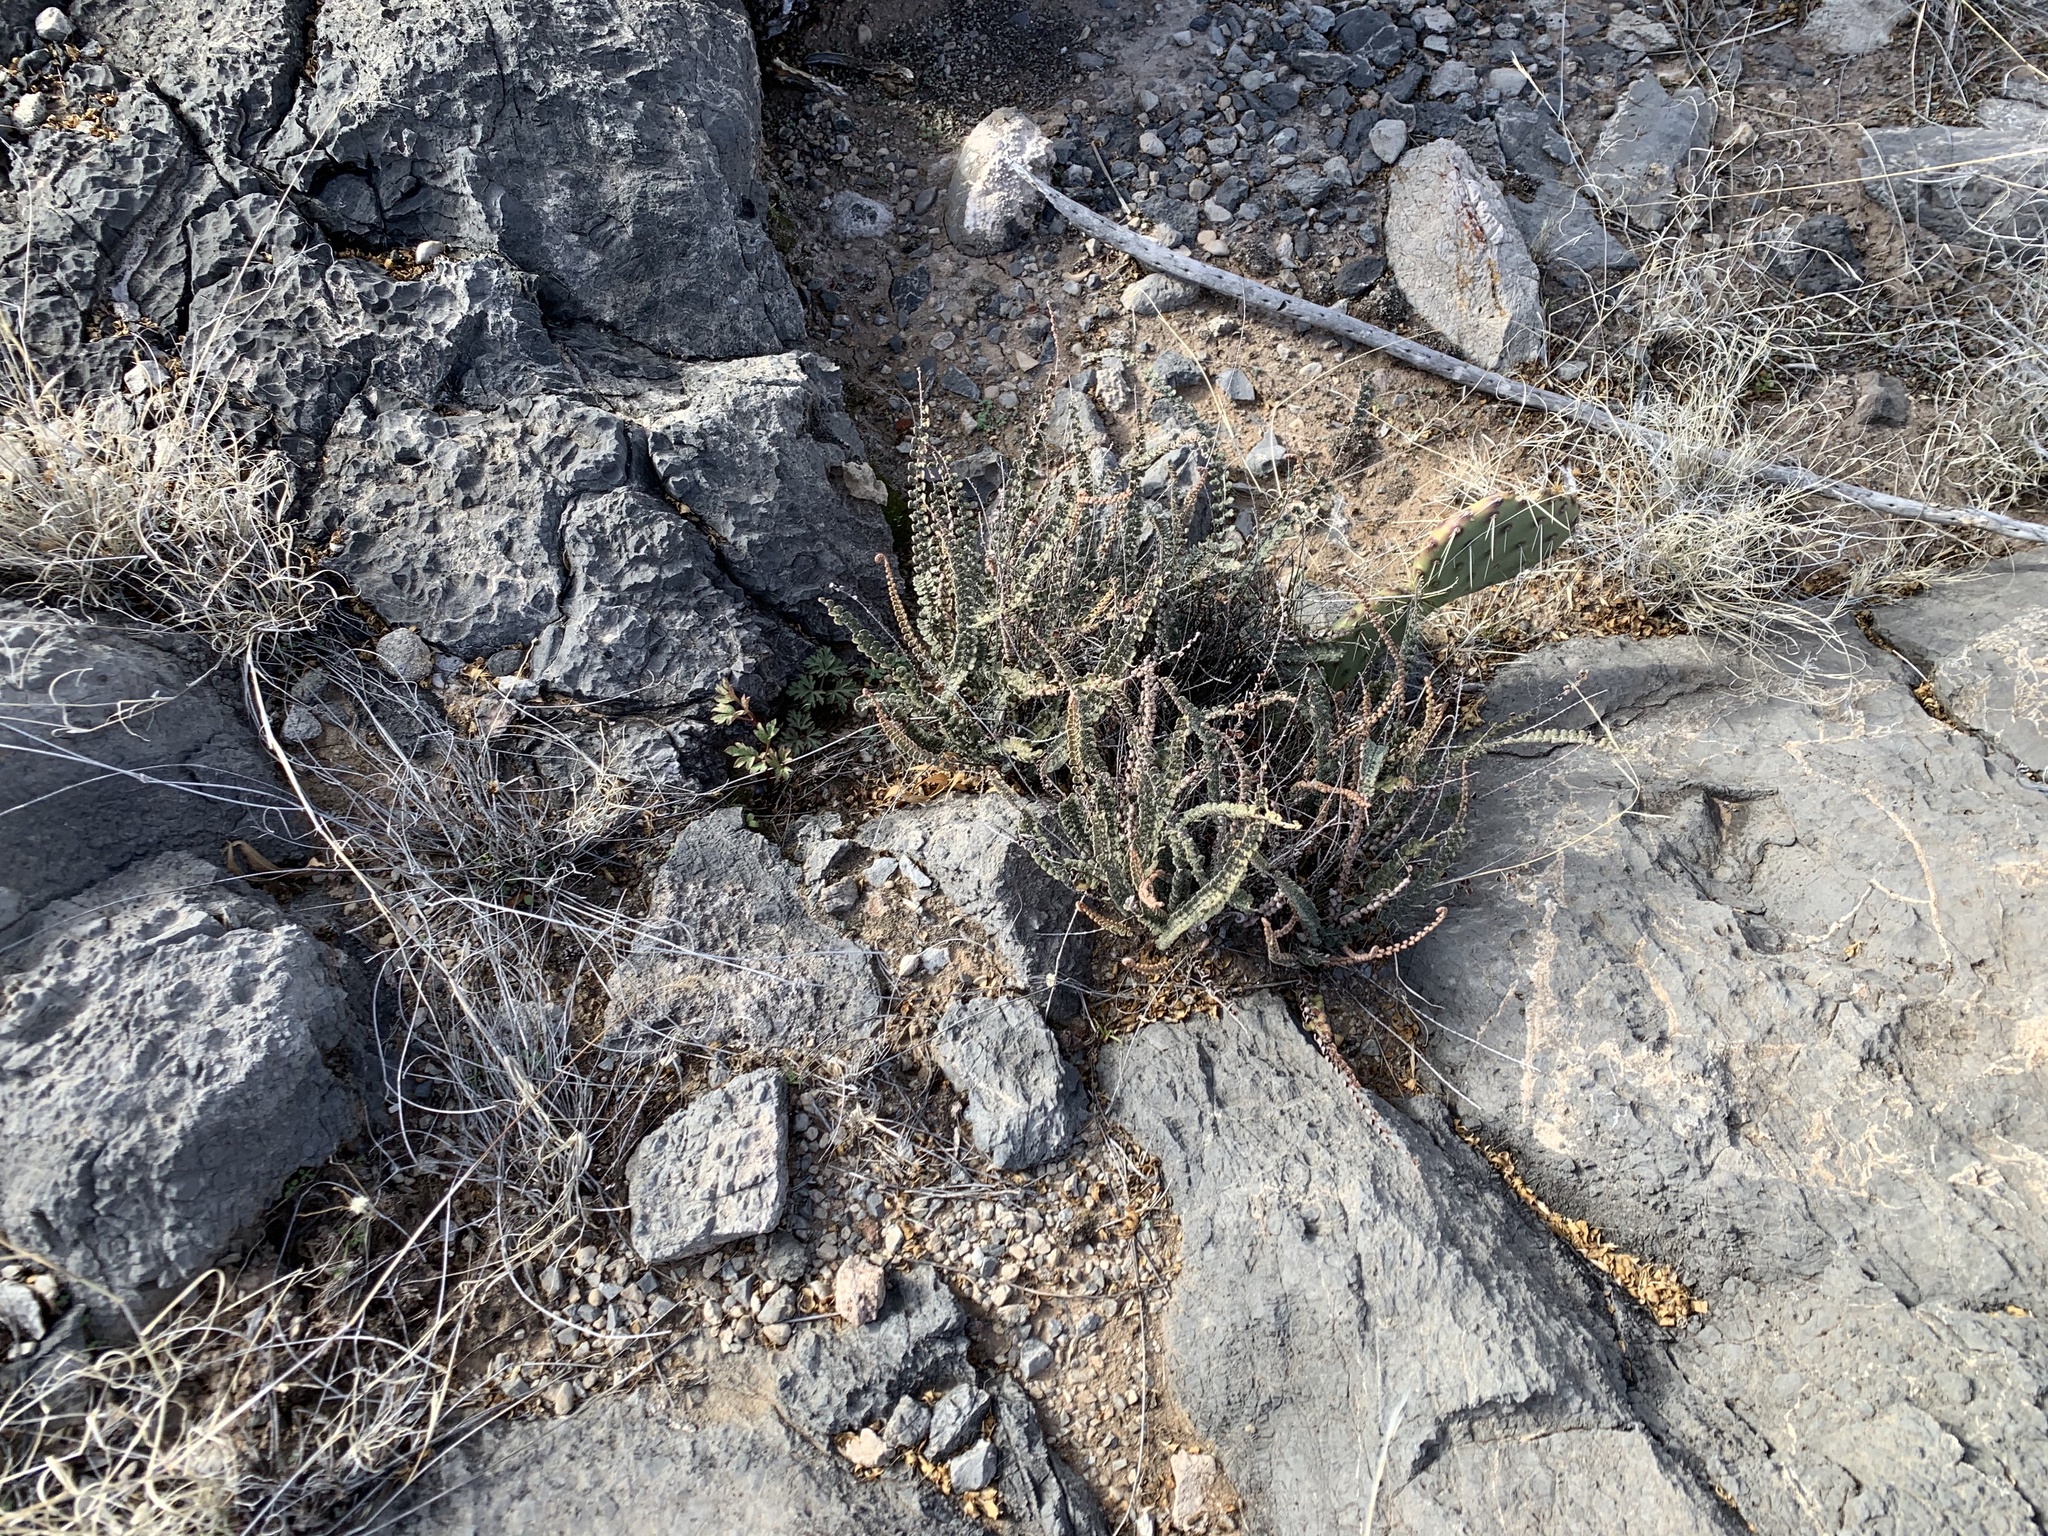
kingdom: Plantae
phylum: Tracheophyta
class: Polypodiopsida
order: Polypodiales
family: Pteridaceae
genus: Astrolepis
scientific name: Astrolepis cochisensis
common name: Scaly cloak fern
